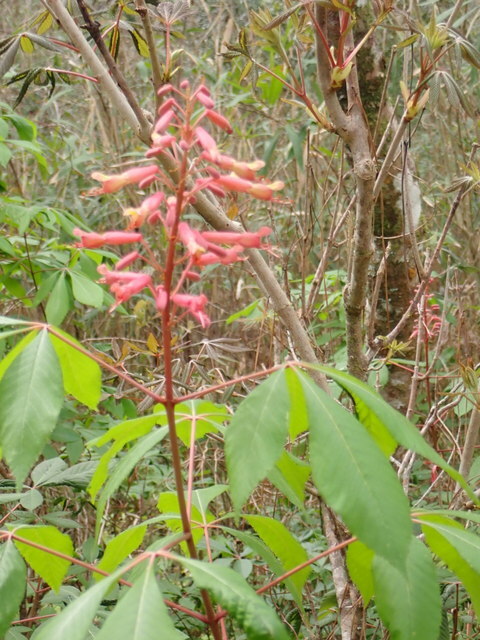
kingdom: Plantae
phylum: Tracheophyta
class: Magnoliopsida
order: Sapindales
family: Sapindaceae
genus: Aesculus
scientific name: Aesculus pavia
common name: Red buckeye
